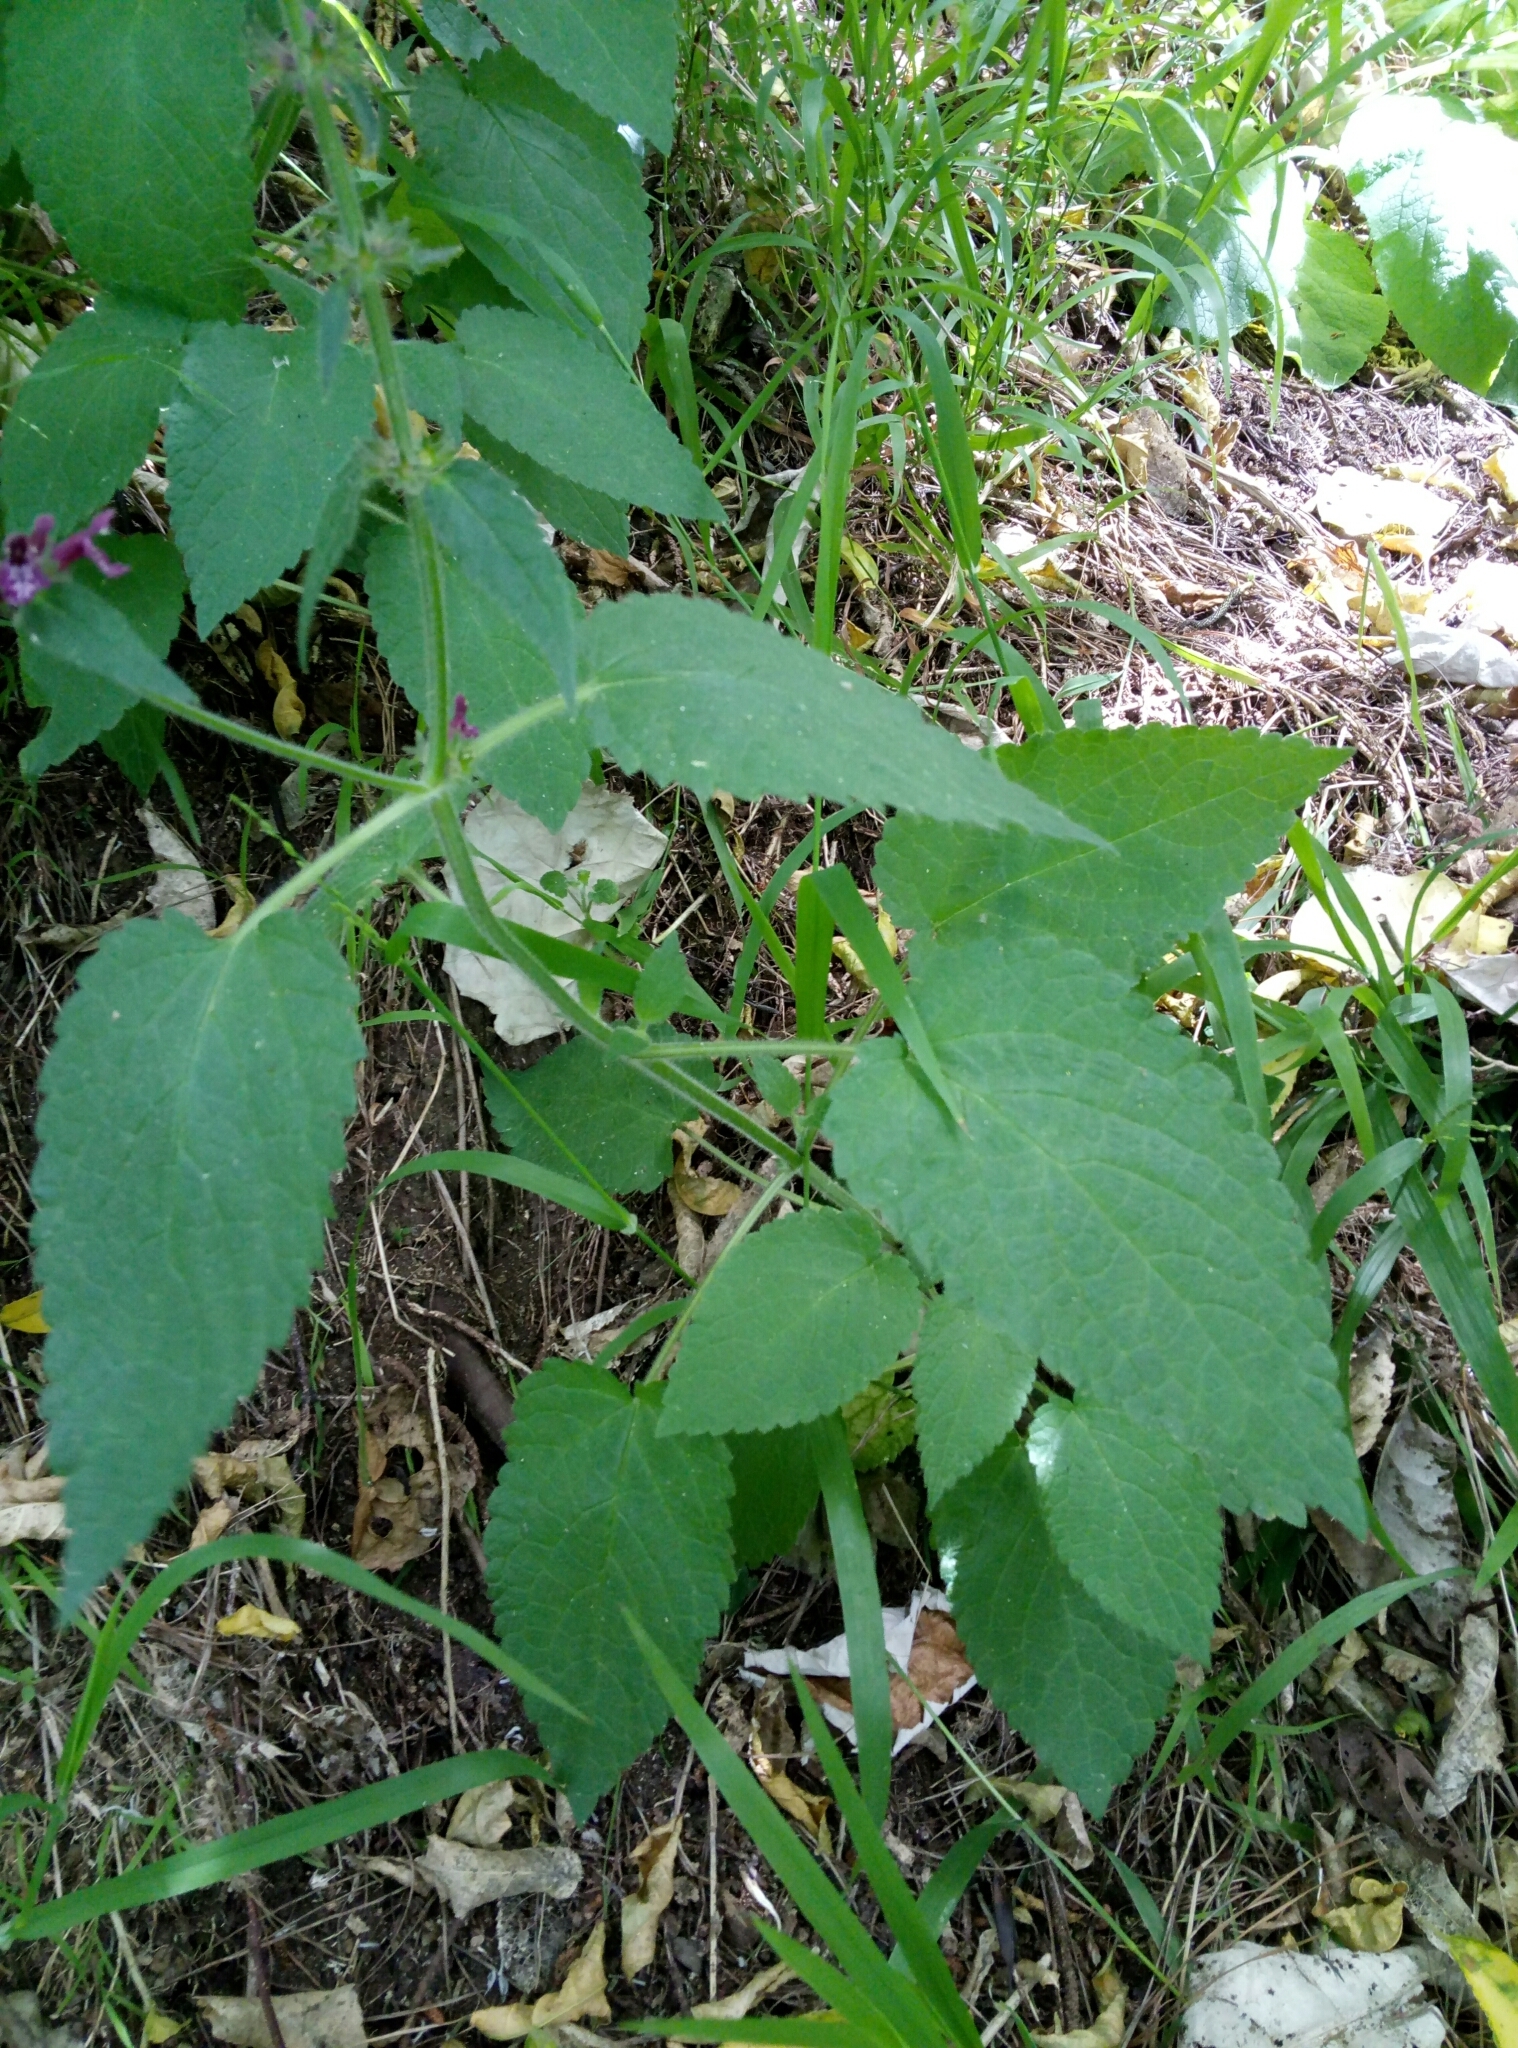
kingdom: Plantae
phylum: Tracheophyta
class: Magnoliopsida
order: Lamiales
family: Lamiaceae
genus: Stachys
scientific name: Stachys sylvatica
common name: Hedge woundwort
